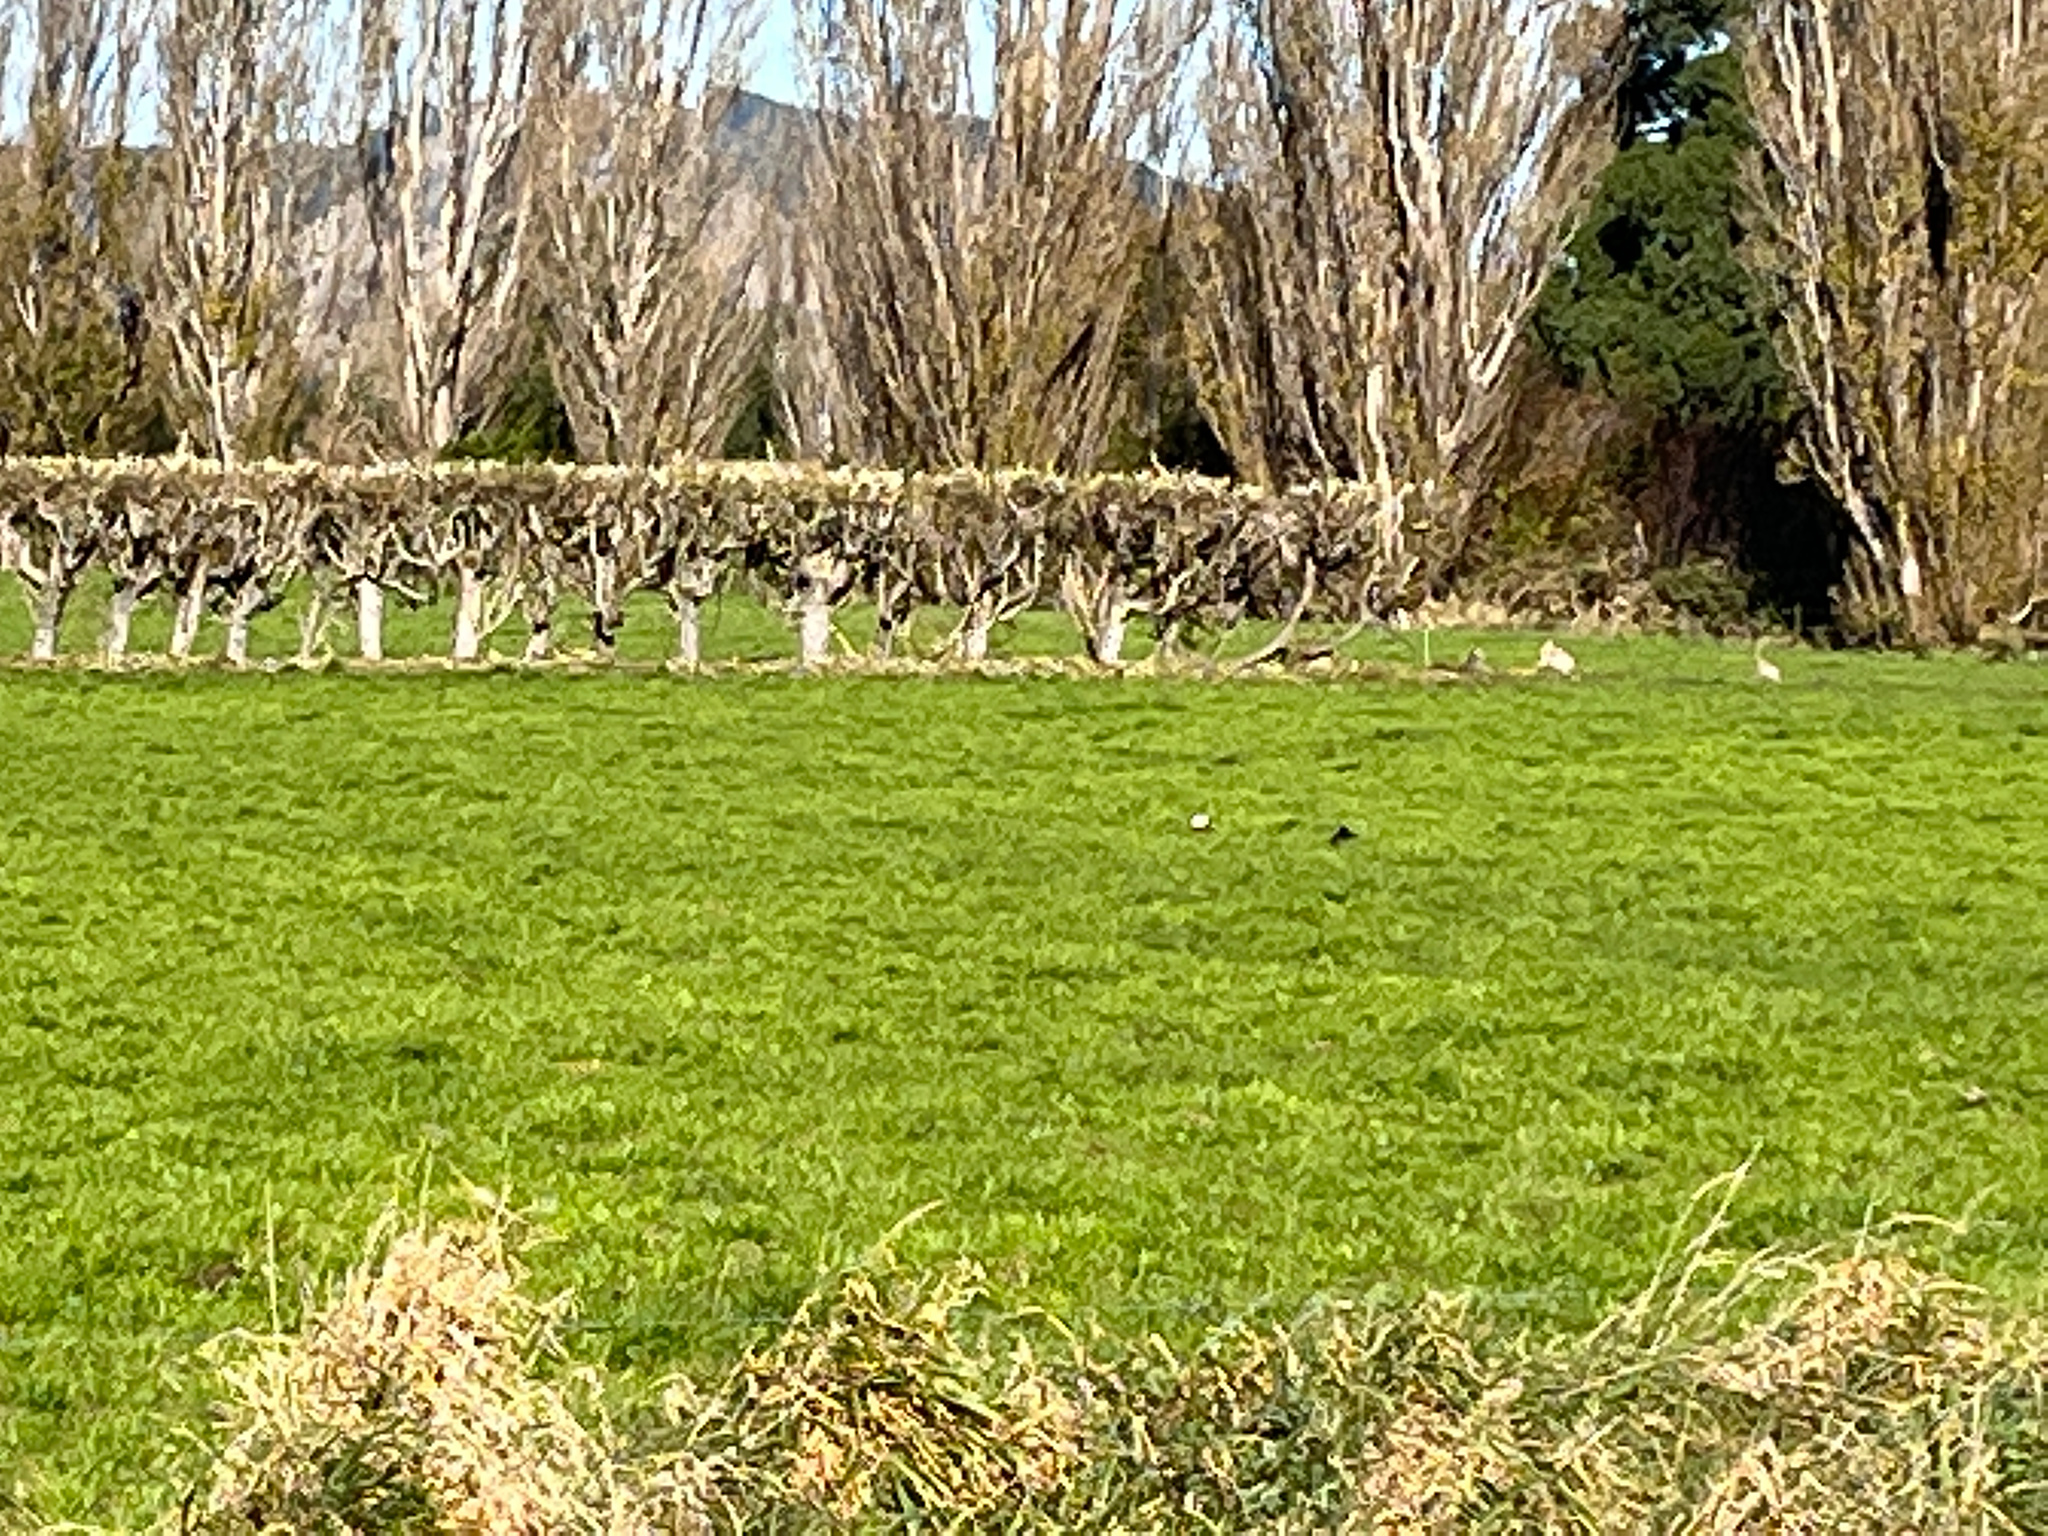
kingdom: Animalia
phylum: Chordata
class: Aves
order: Anseriformes
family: Anatidae
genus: Tadorna
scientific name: Tadorna variegata
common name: Paradise shelduck
